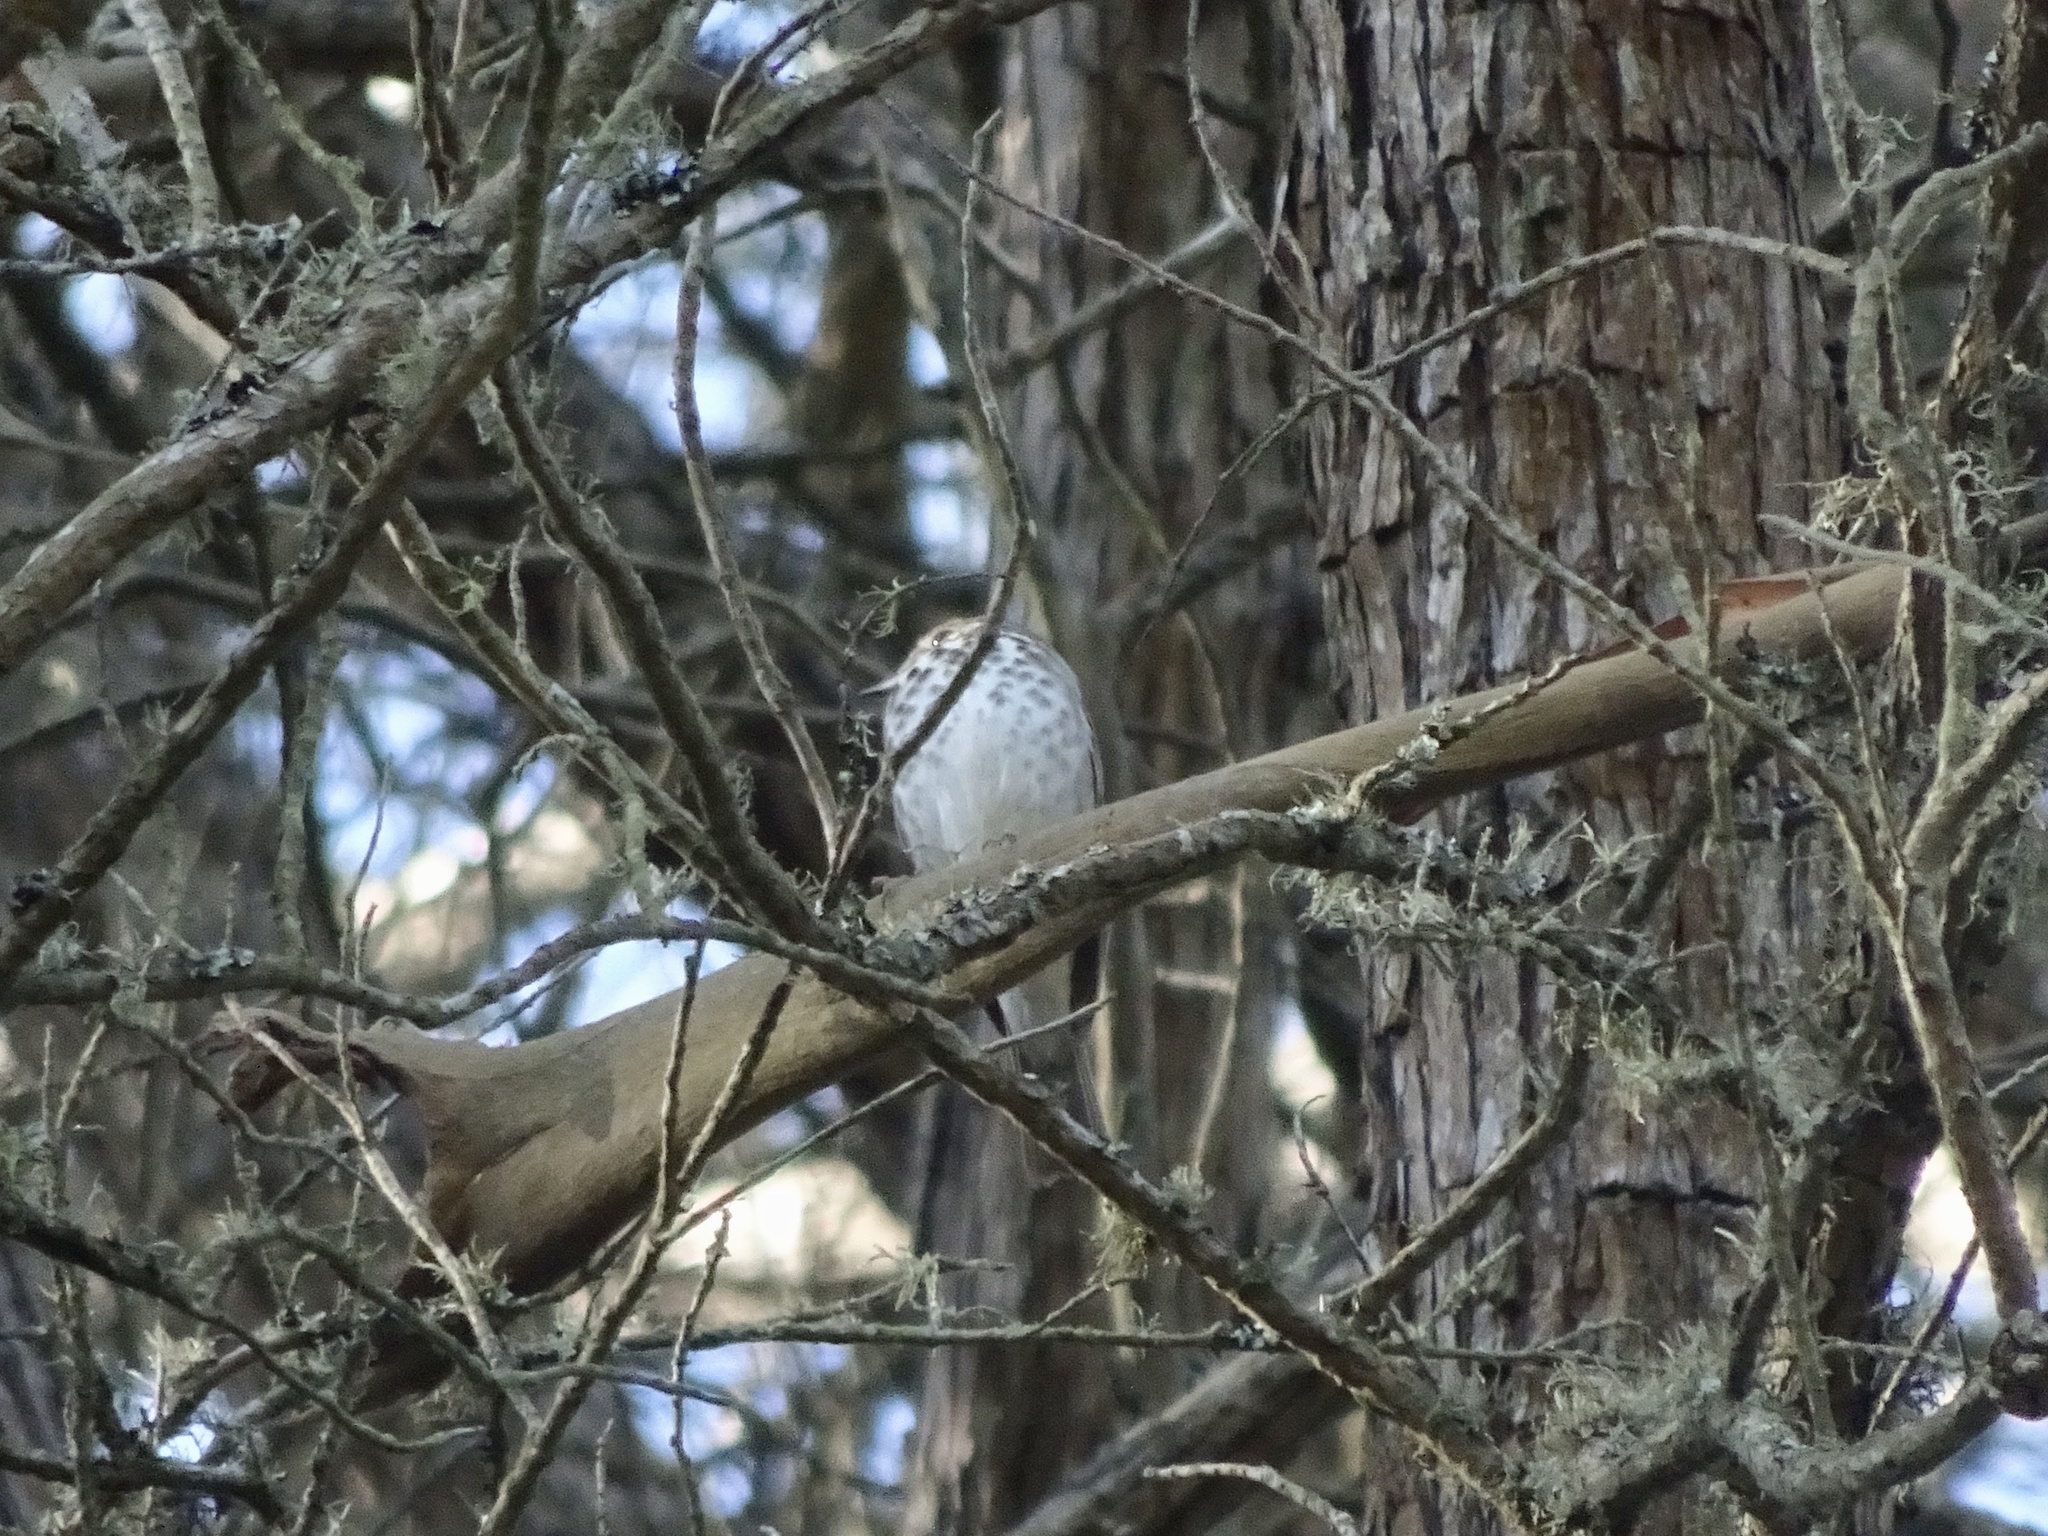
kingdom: Animalia
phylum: Chordata
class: Aves
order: Passeriformes
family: Turdidae
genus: Catharus
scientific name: Catharus guttatus
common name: Hermit thrush
